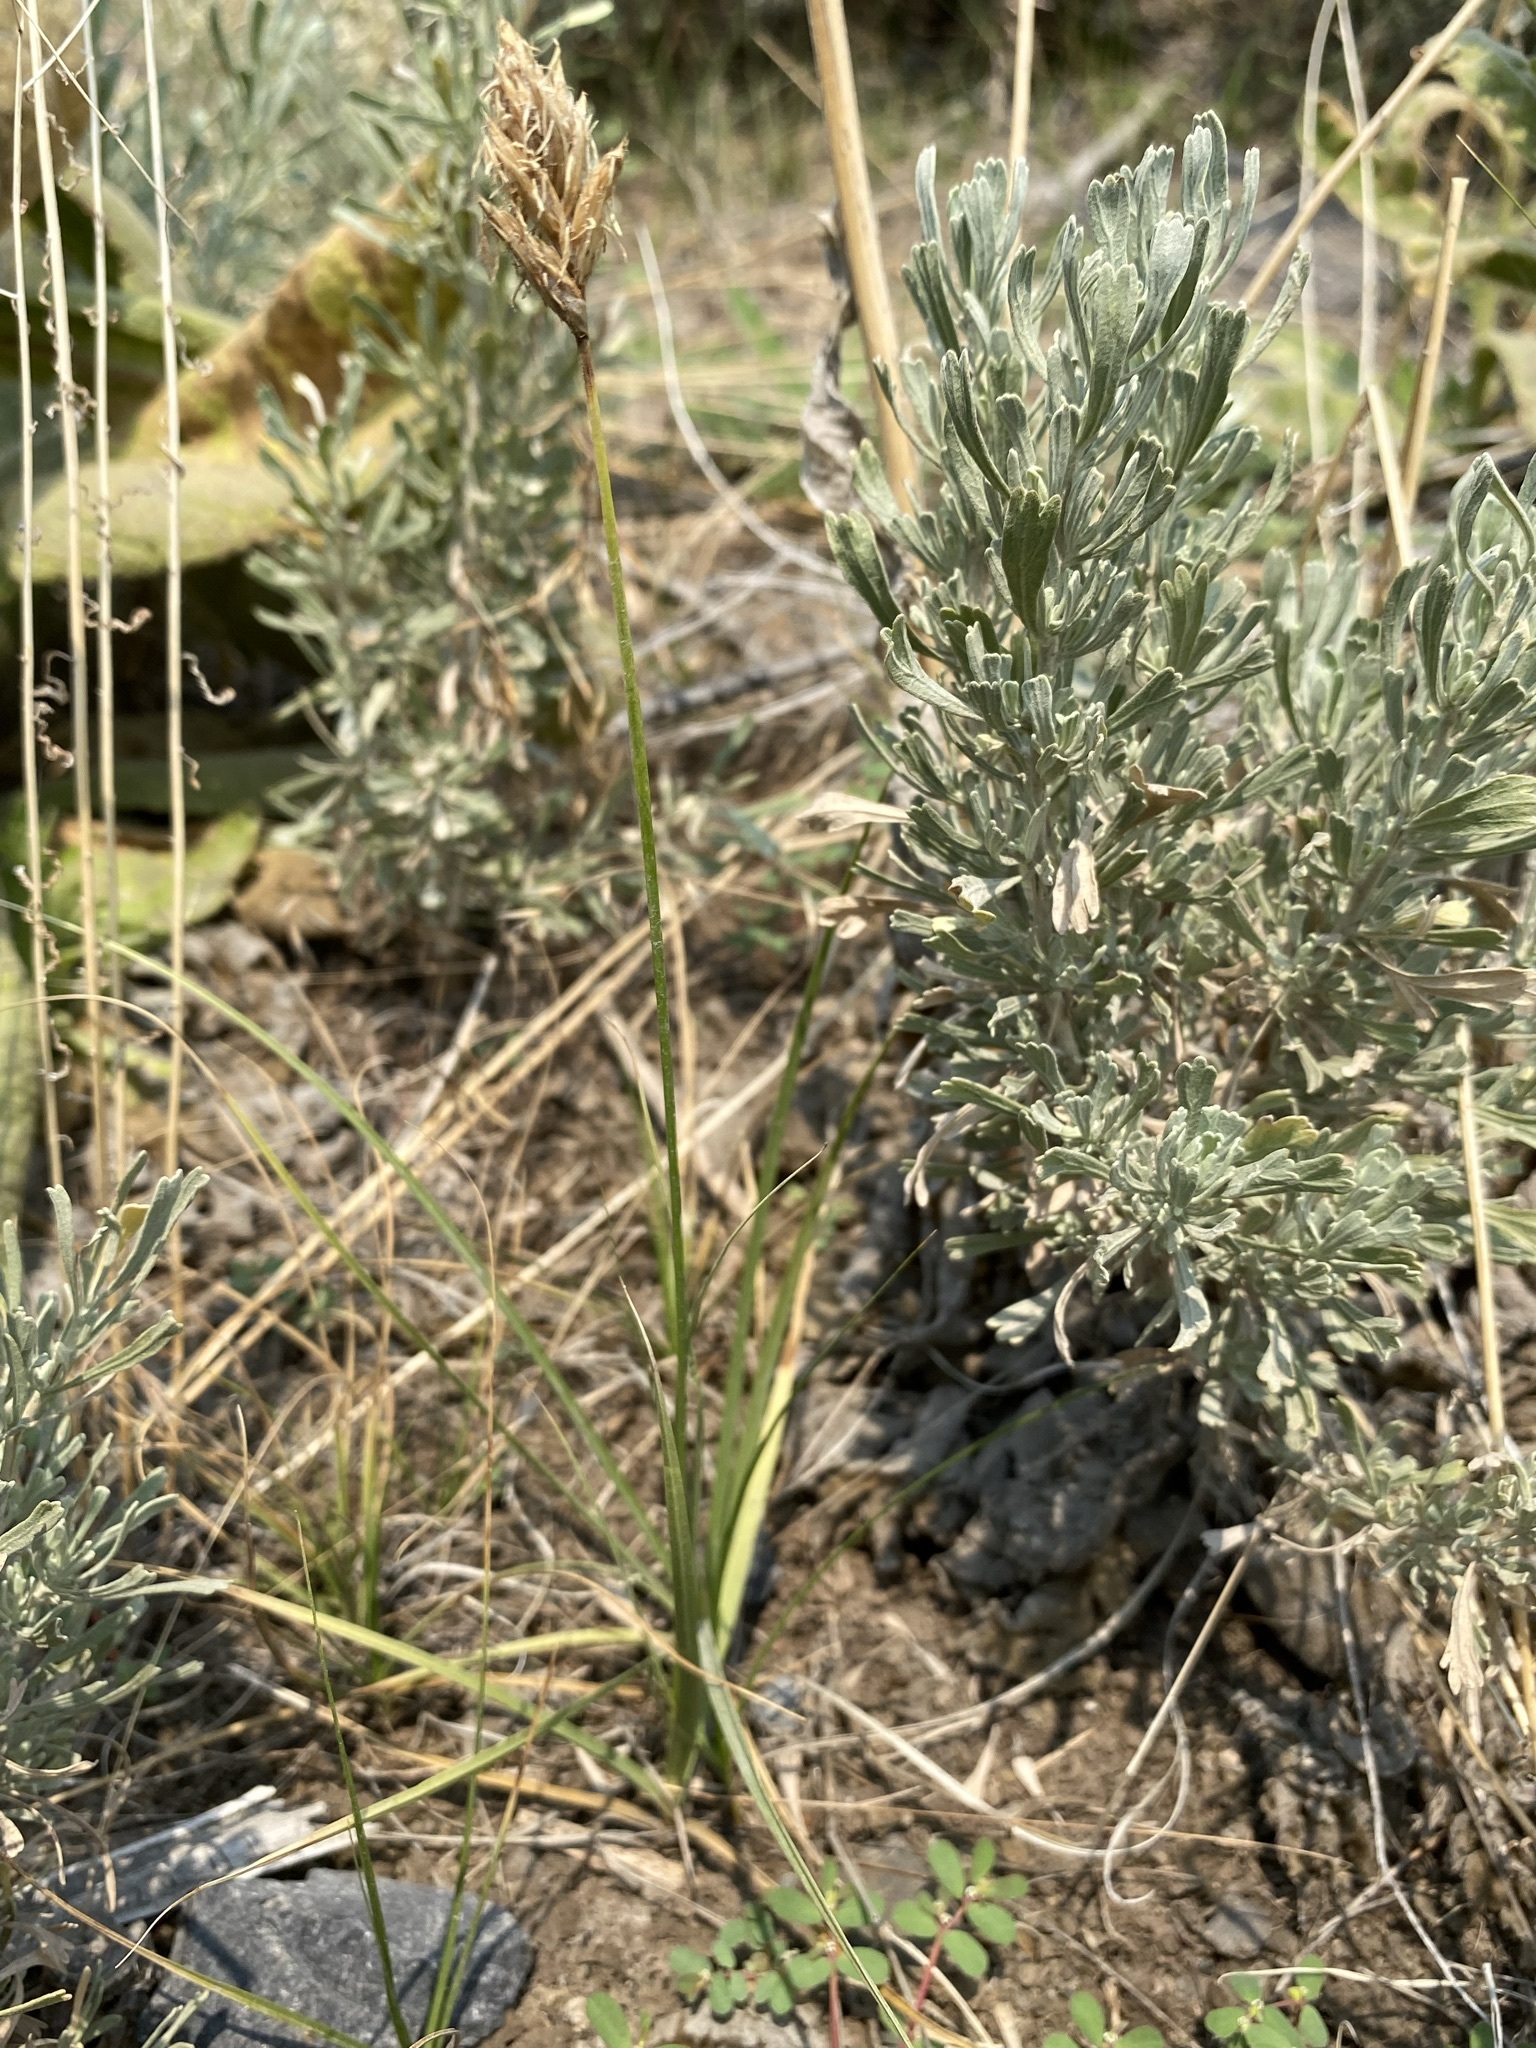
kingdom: Plantae
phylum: Tracheophyta
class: Liliopsida
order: Poales
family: Cyperaceae
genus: Carex
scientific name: Carex douglasii
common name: Douglas' sedge
